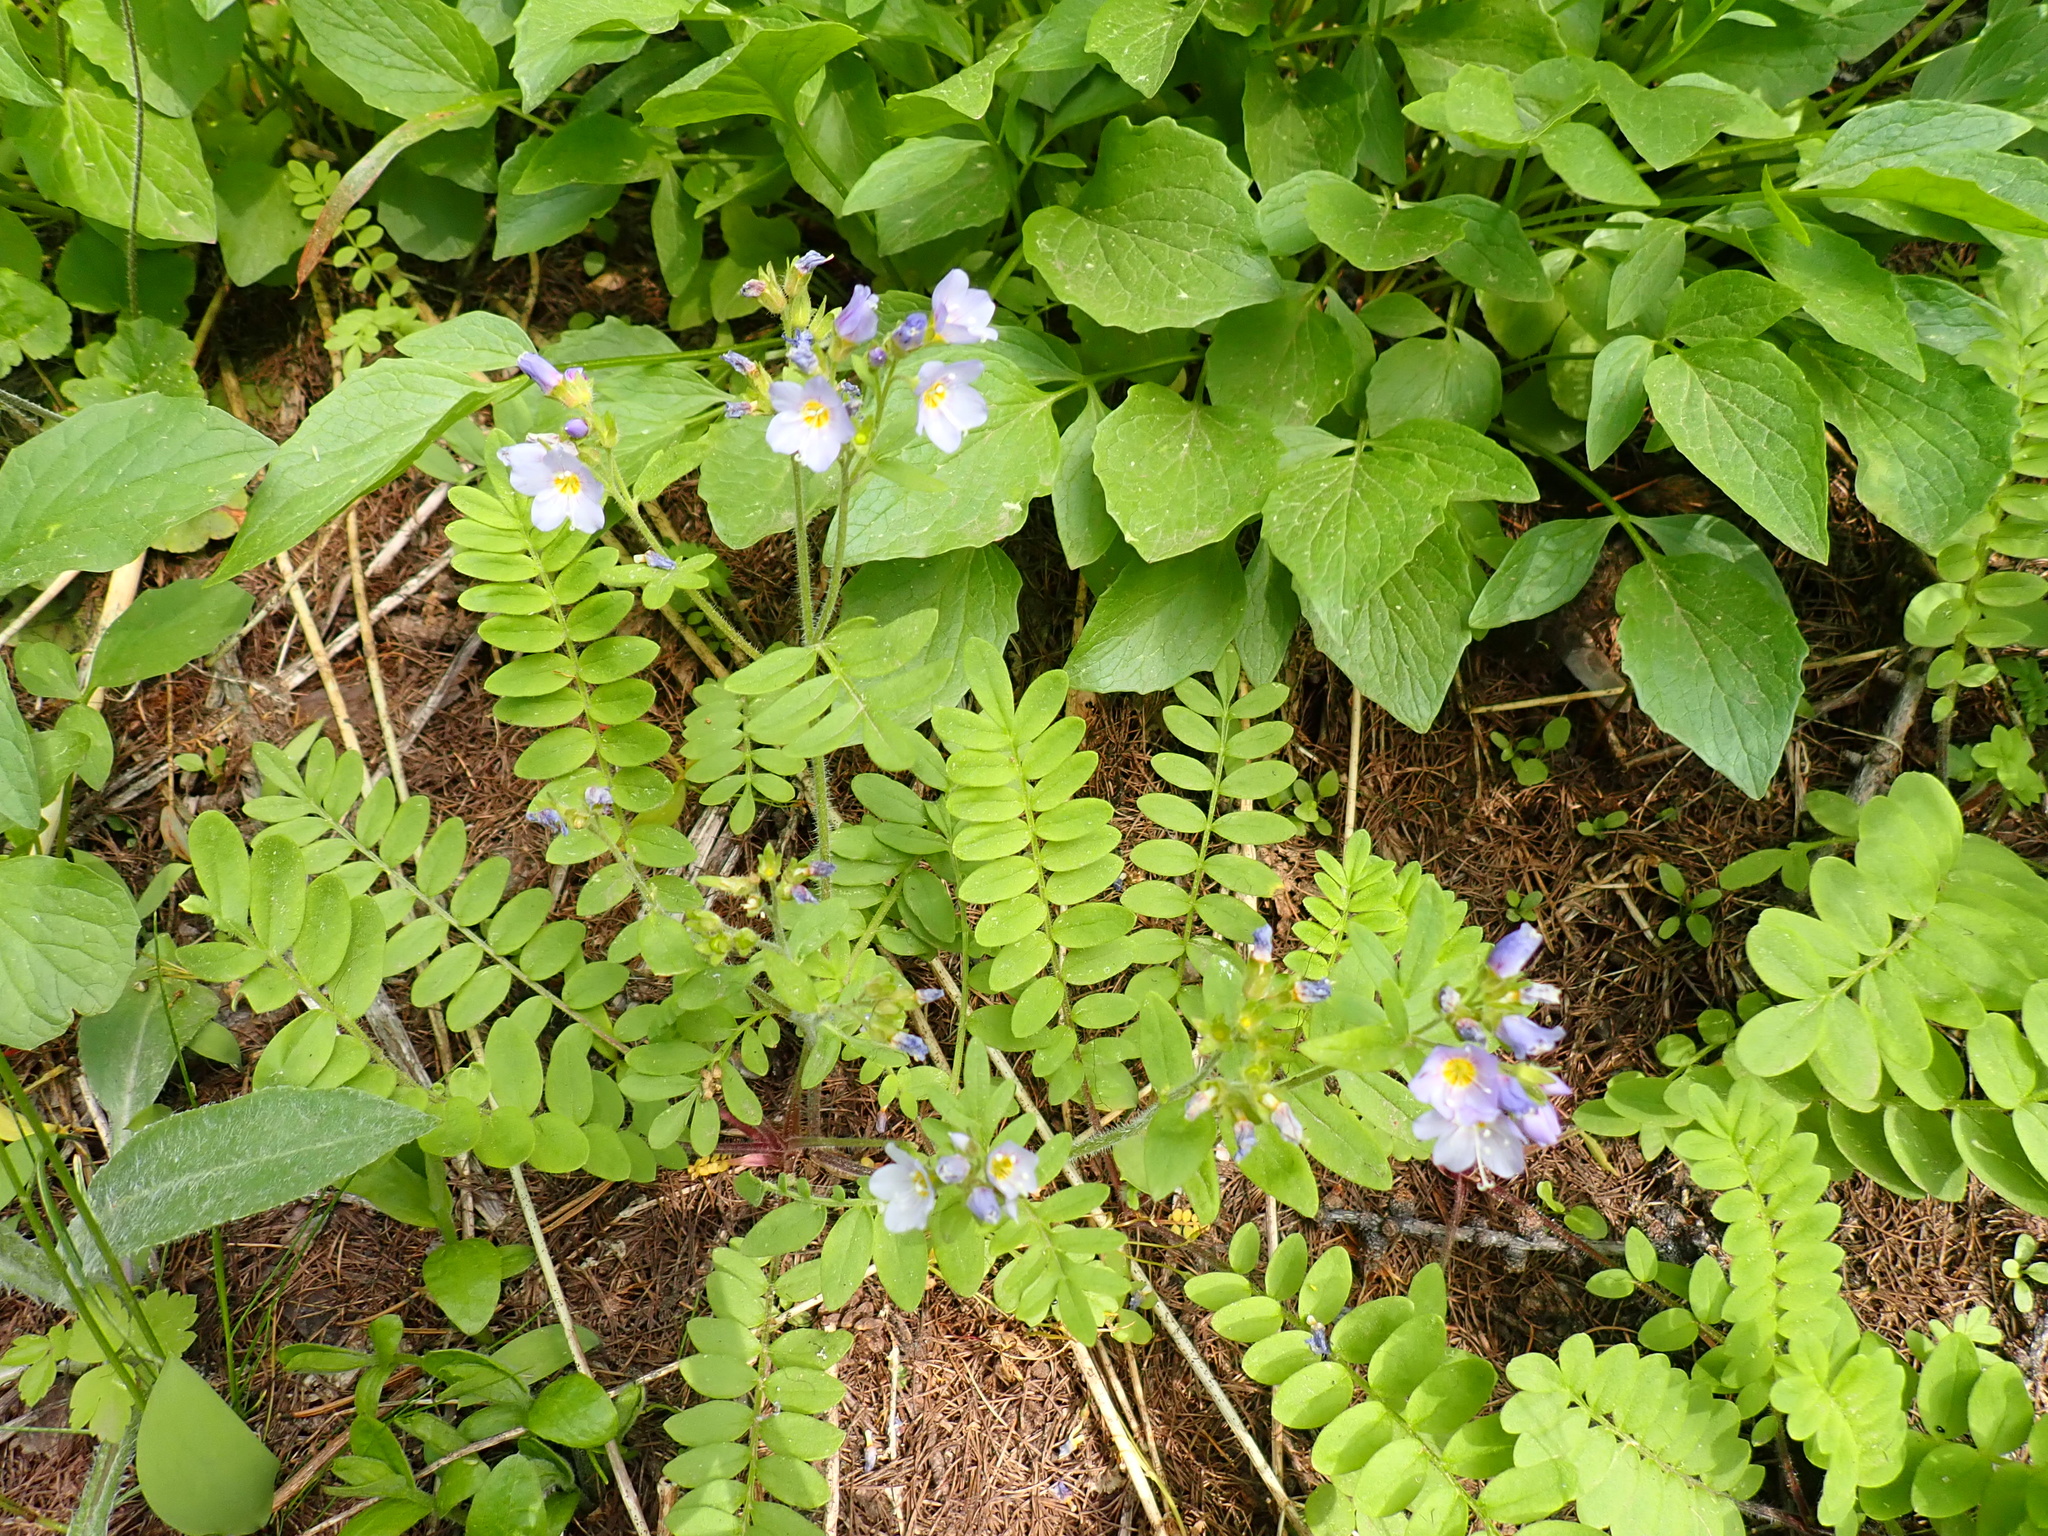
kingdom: Plantae
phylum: Tracheophyta
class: Magnoliopsida
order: Ericales
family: Polemoniaceae
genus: Polemonium
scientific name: Polemonium californicum
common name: California jacob's ladder
